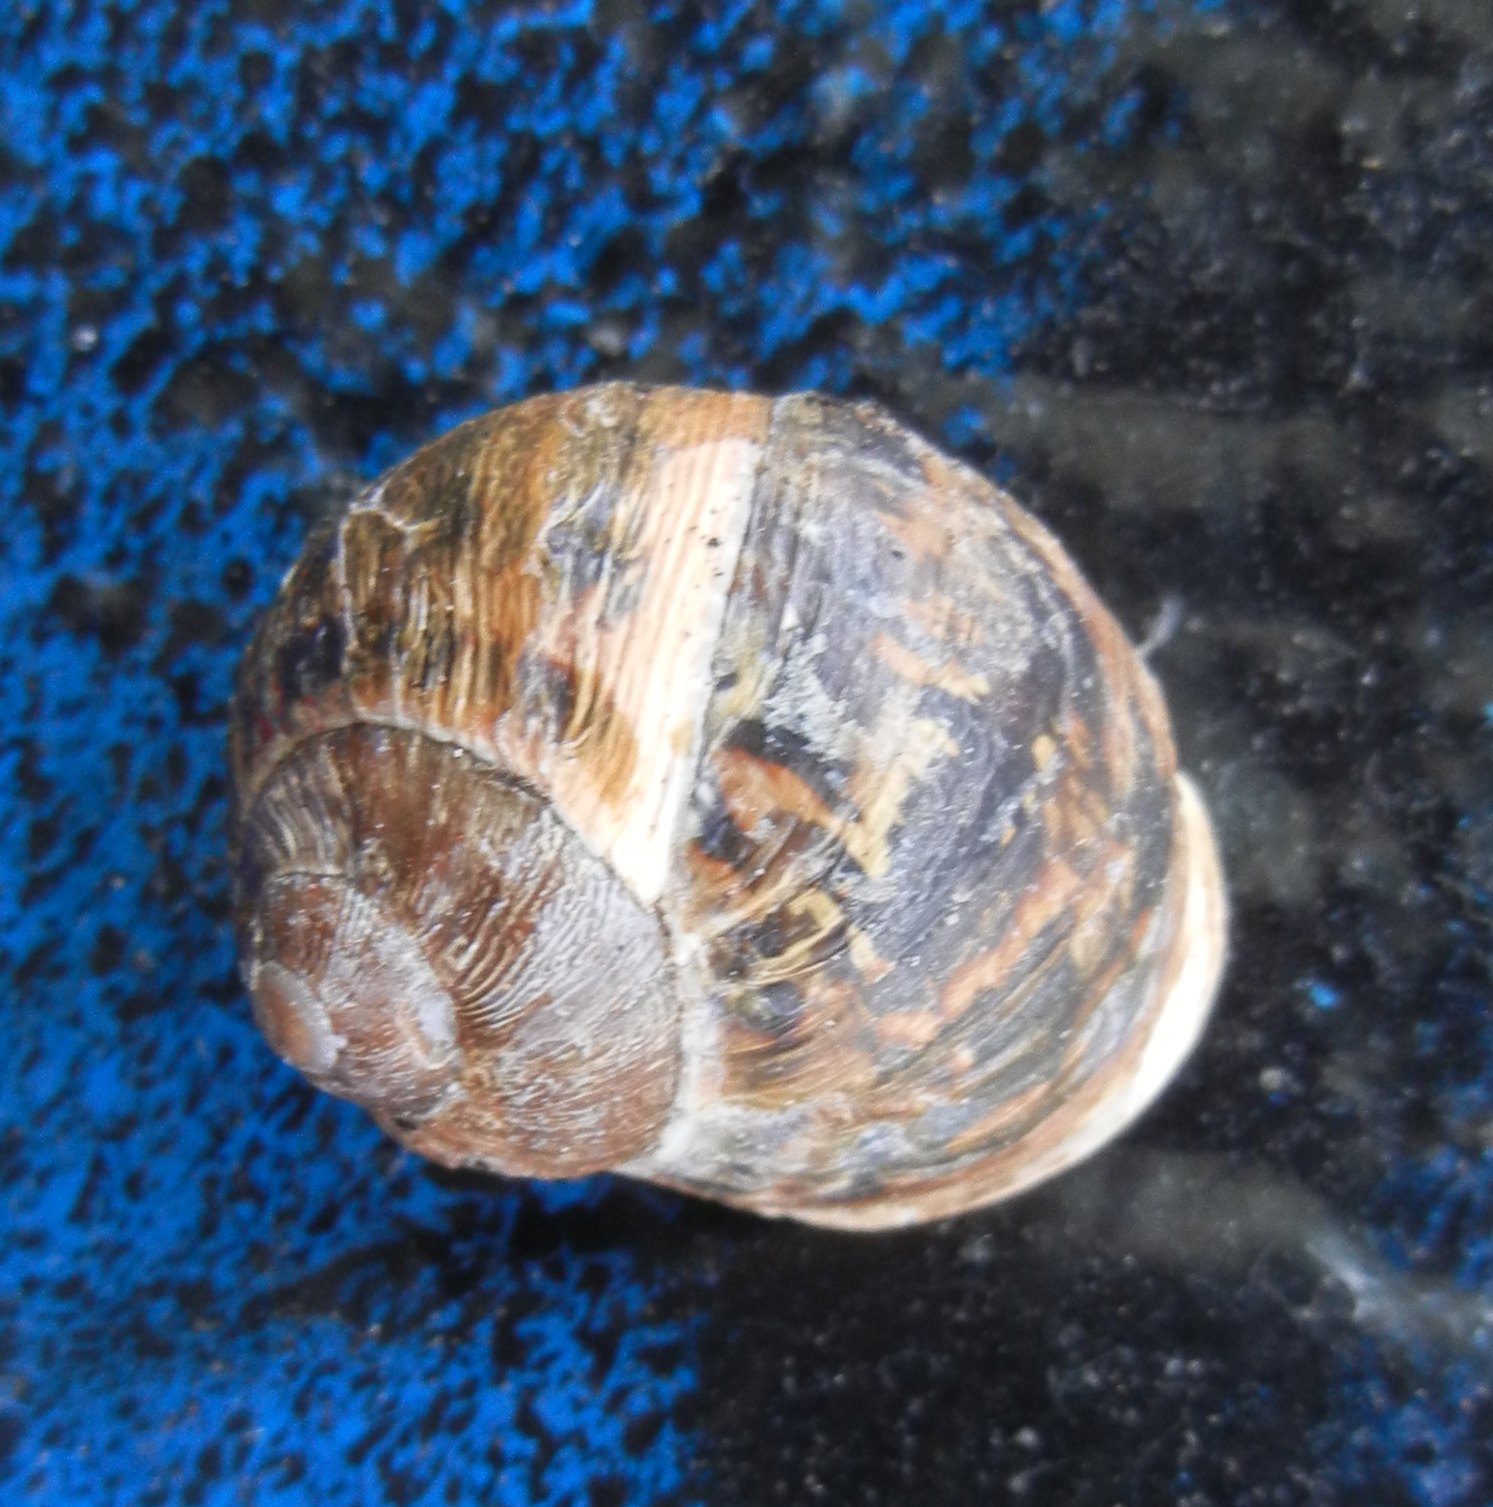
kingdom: Animalia
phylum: Mollusca
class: Gastropoda
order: Stylommatophora
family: Helicidae
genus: Cornu
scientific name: Cornu aspersum
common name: Brown garden snail
